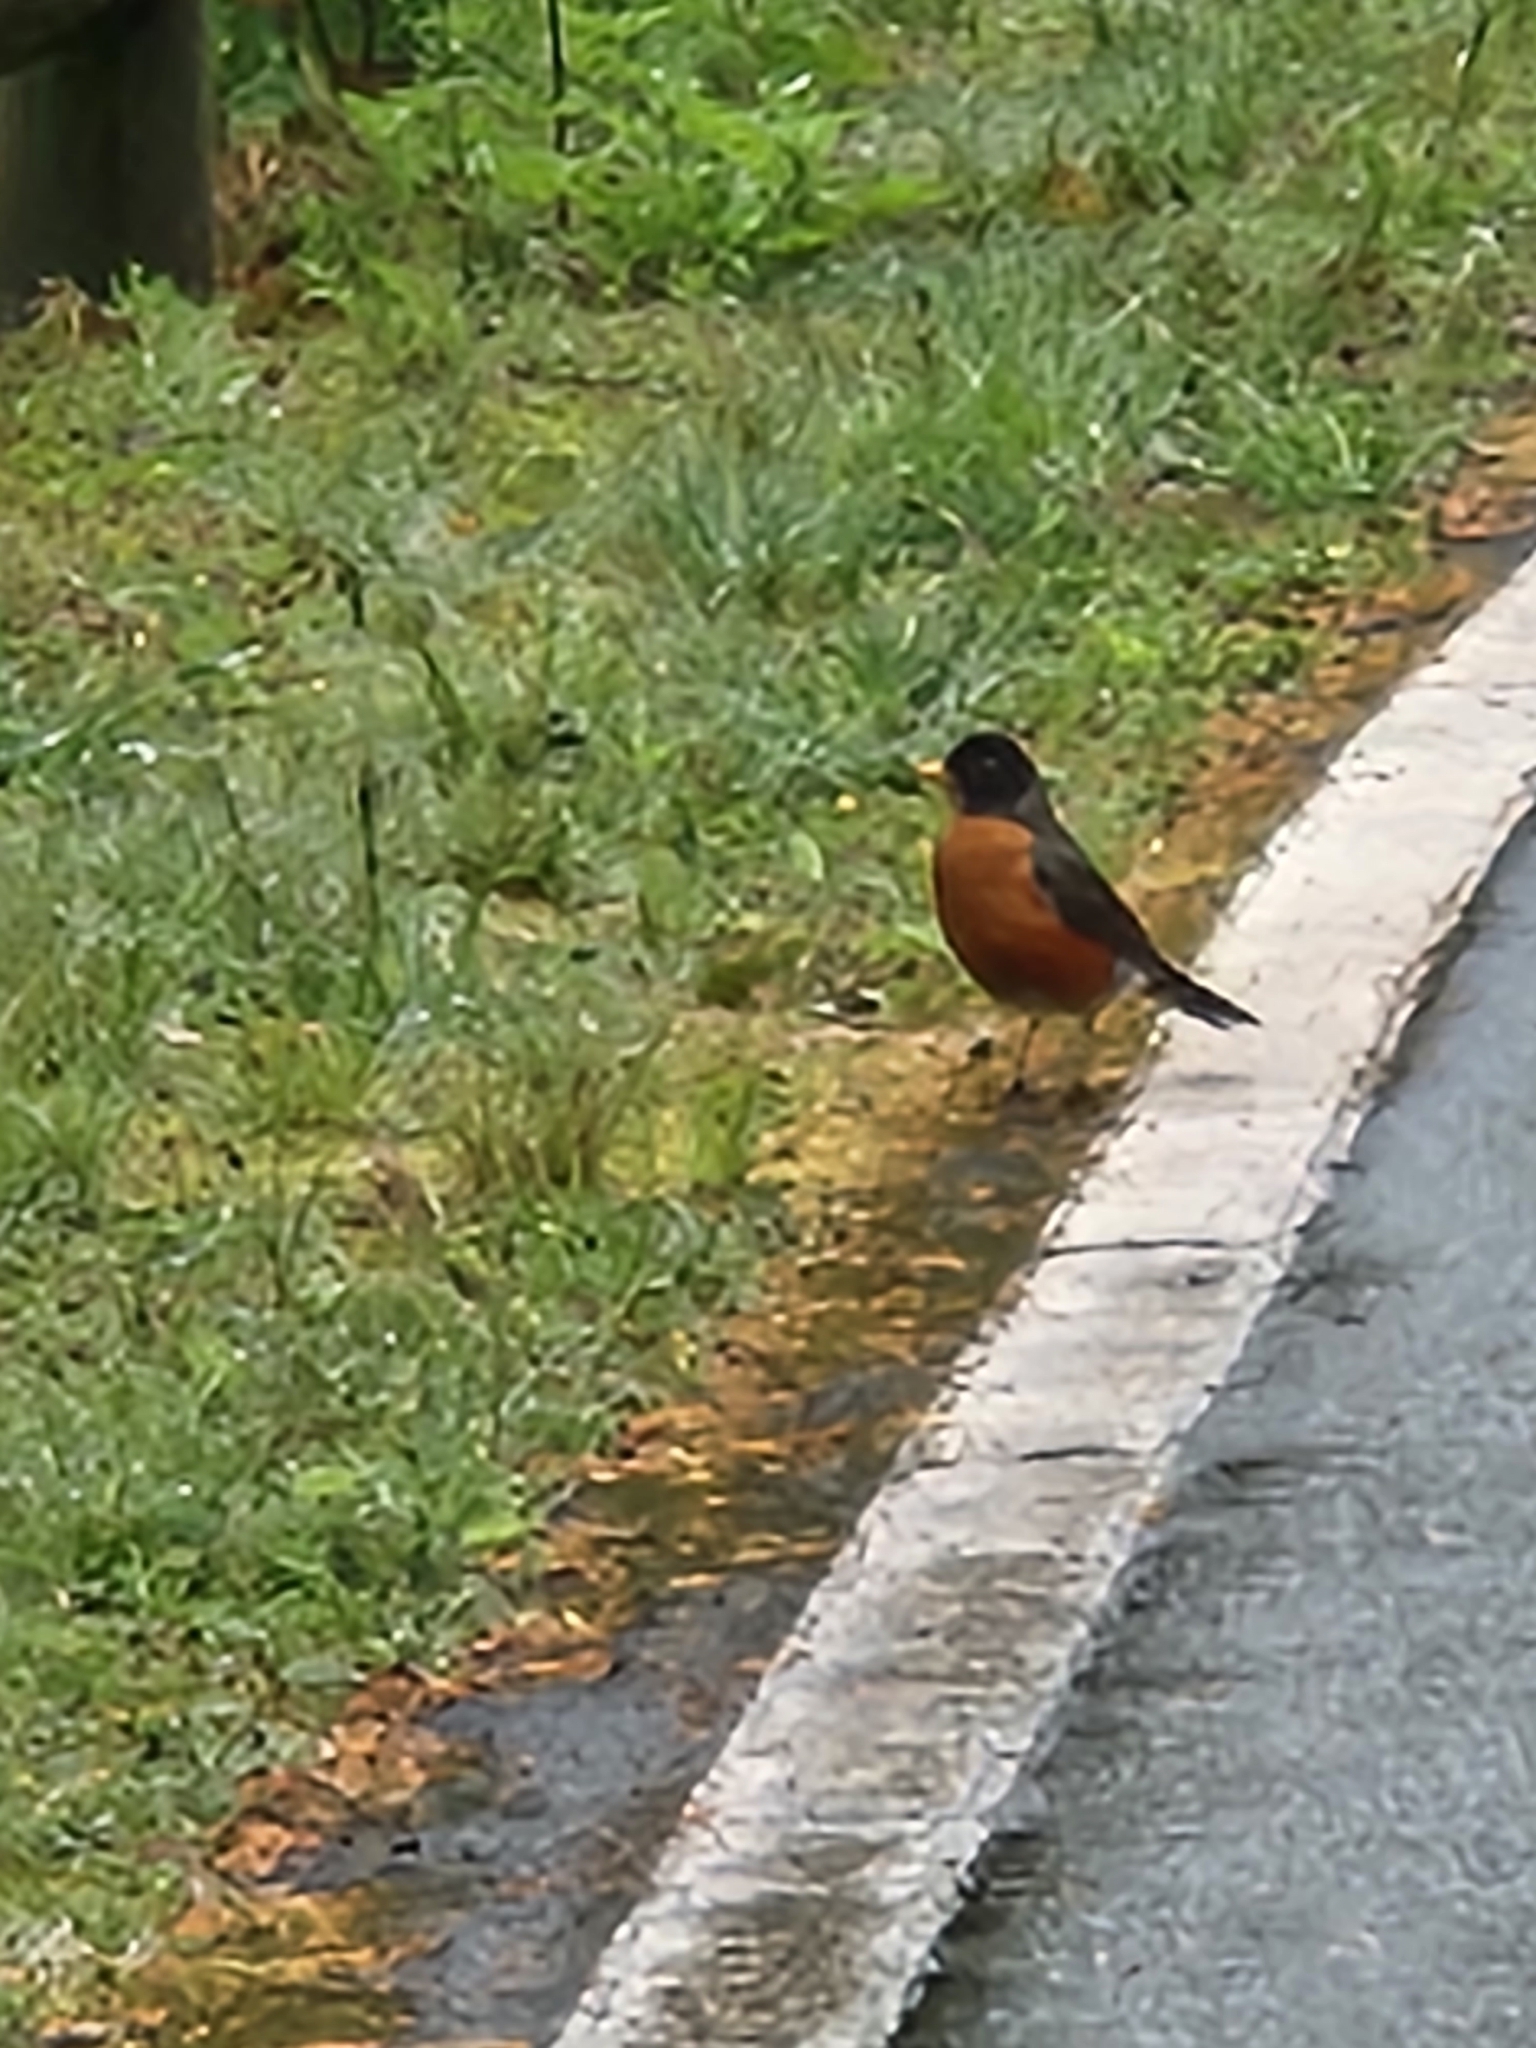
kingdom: Animalia
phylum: Chordata
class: Aves
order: Passeriformes
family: Turdidae
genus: Turdus
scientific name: Turdus migratorius
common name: American robin
